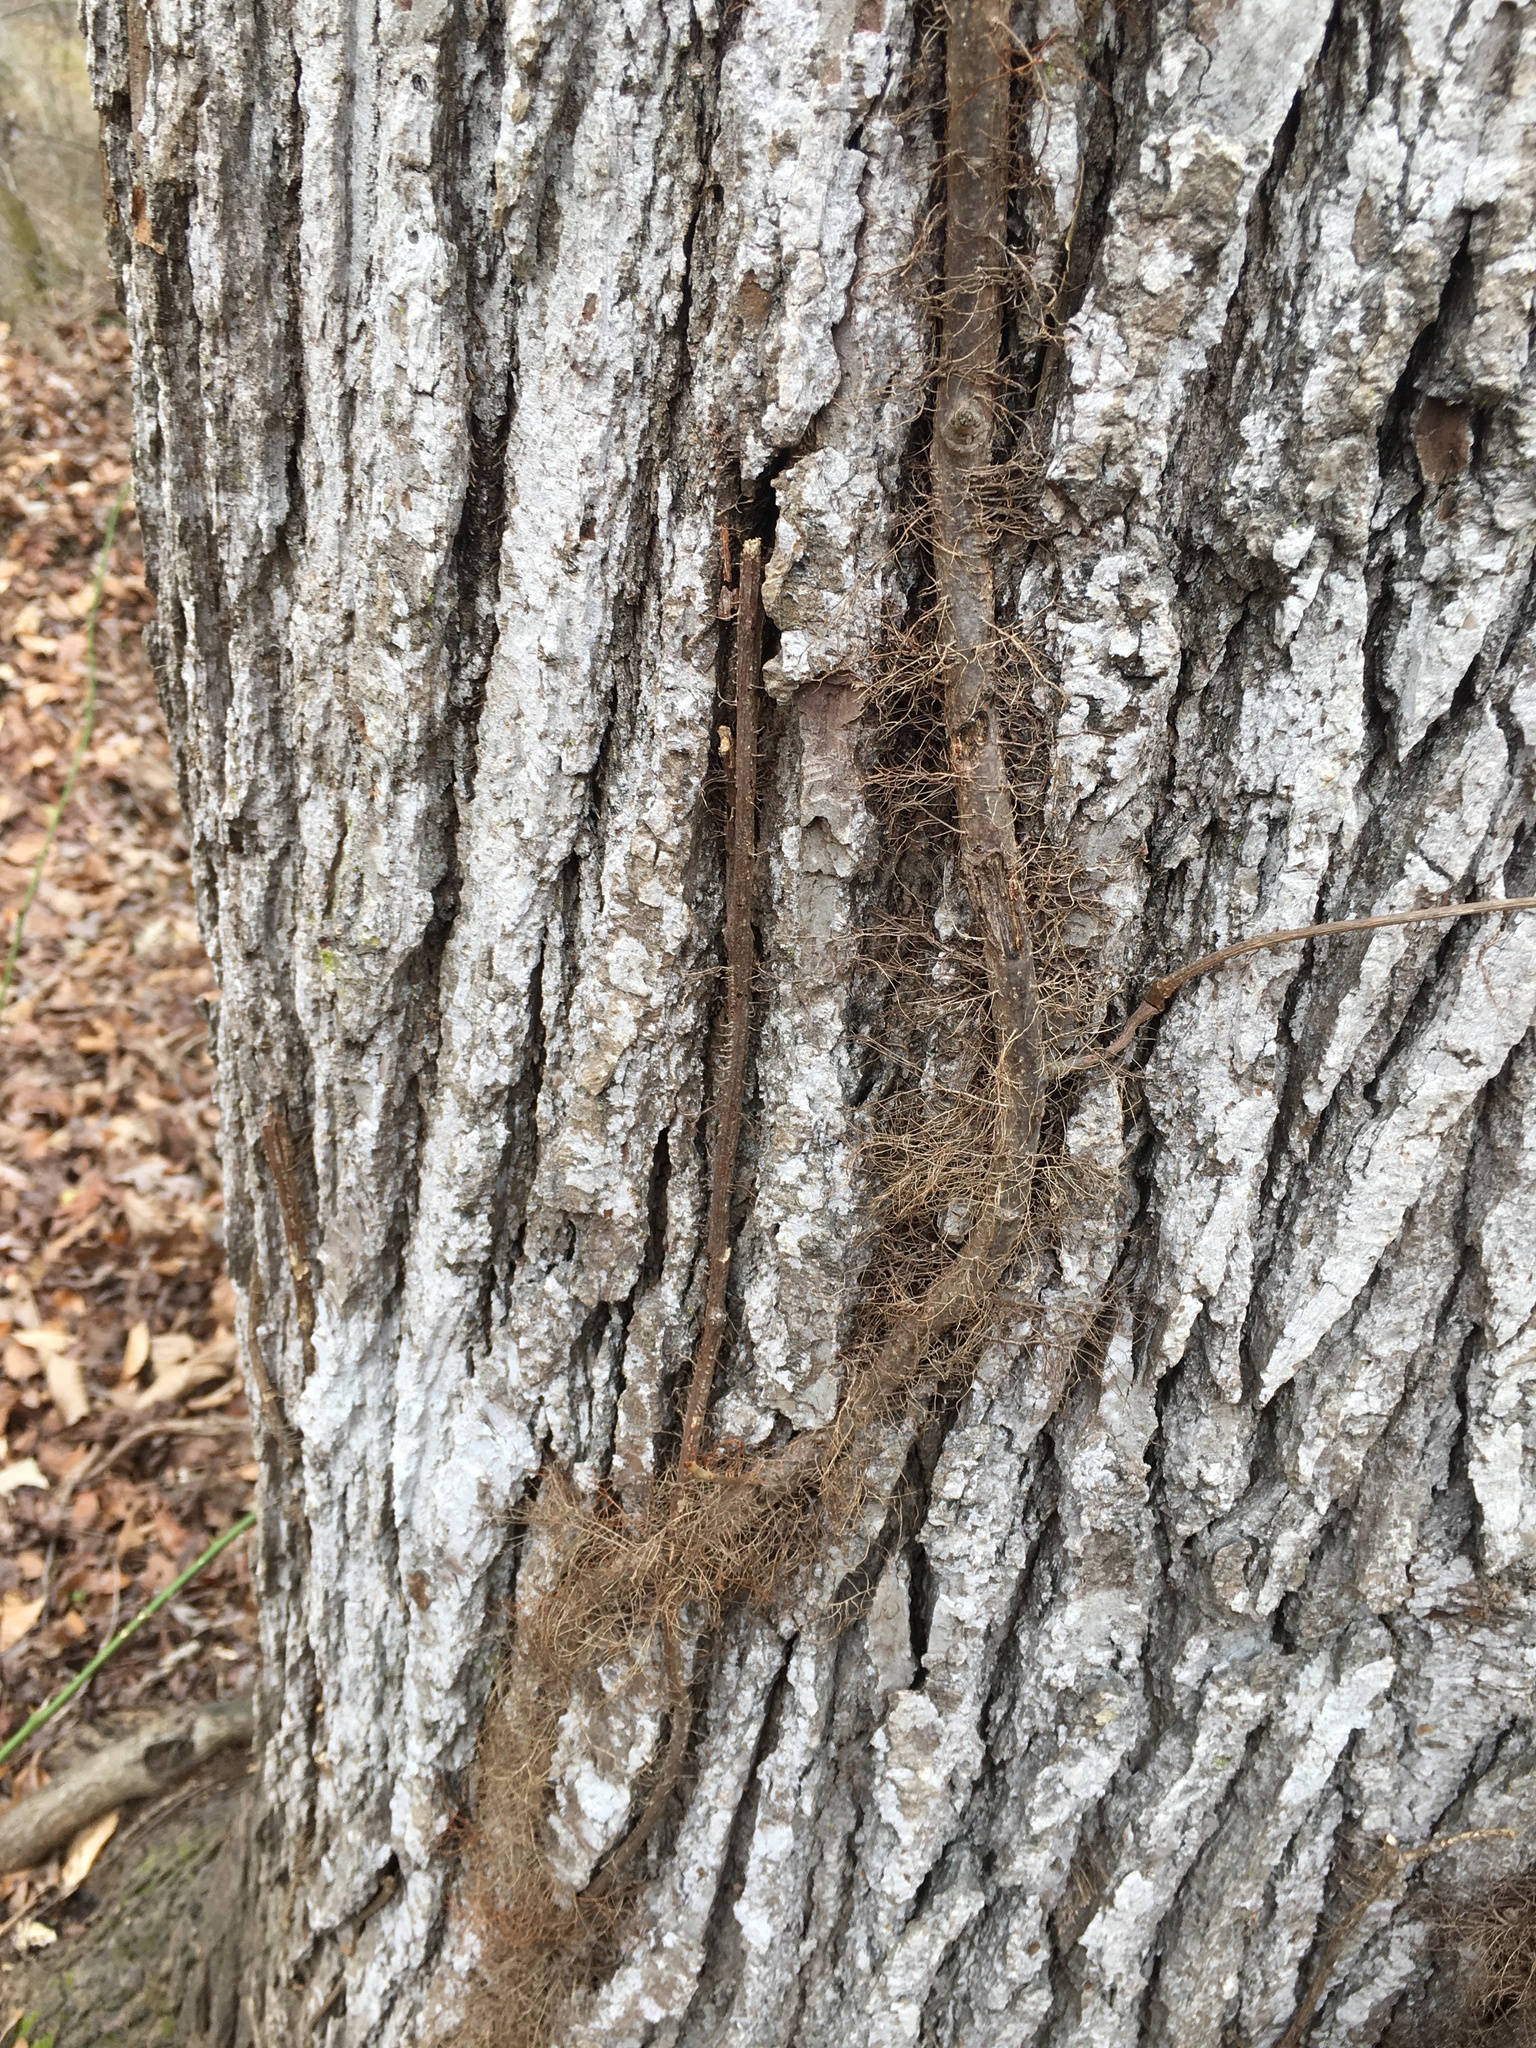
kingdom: Plantae
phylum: Tracheophyta
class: Magnoliopsida
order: Sapindales
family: Anacardiaceae
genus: Toxicodendron
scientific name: Toxicodendron radicans
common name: Poison ivy
